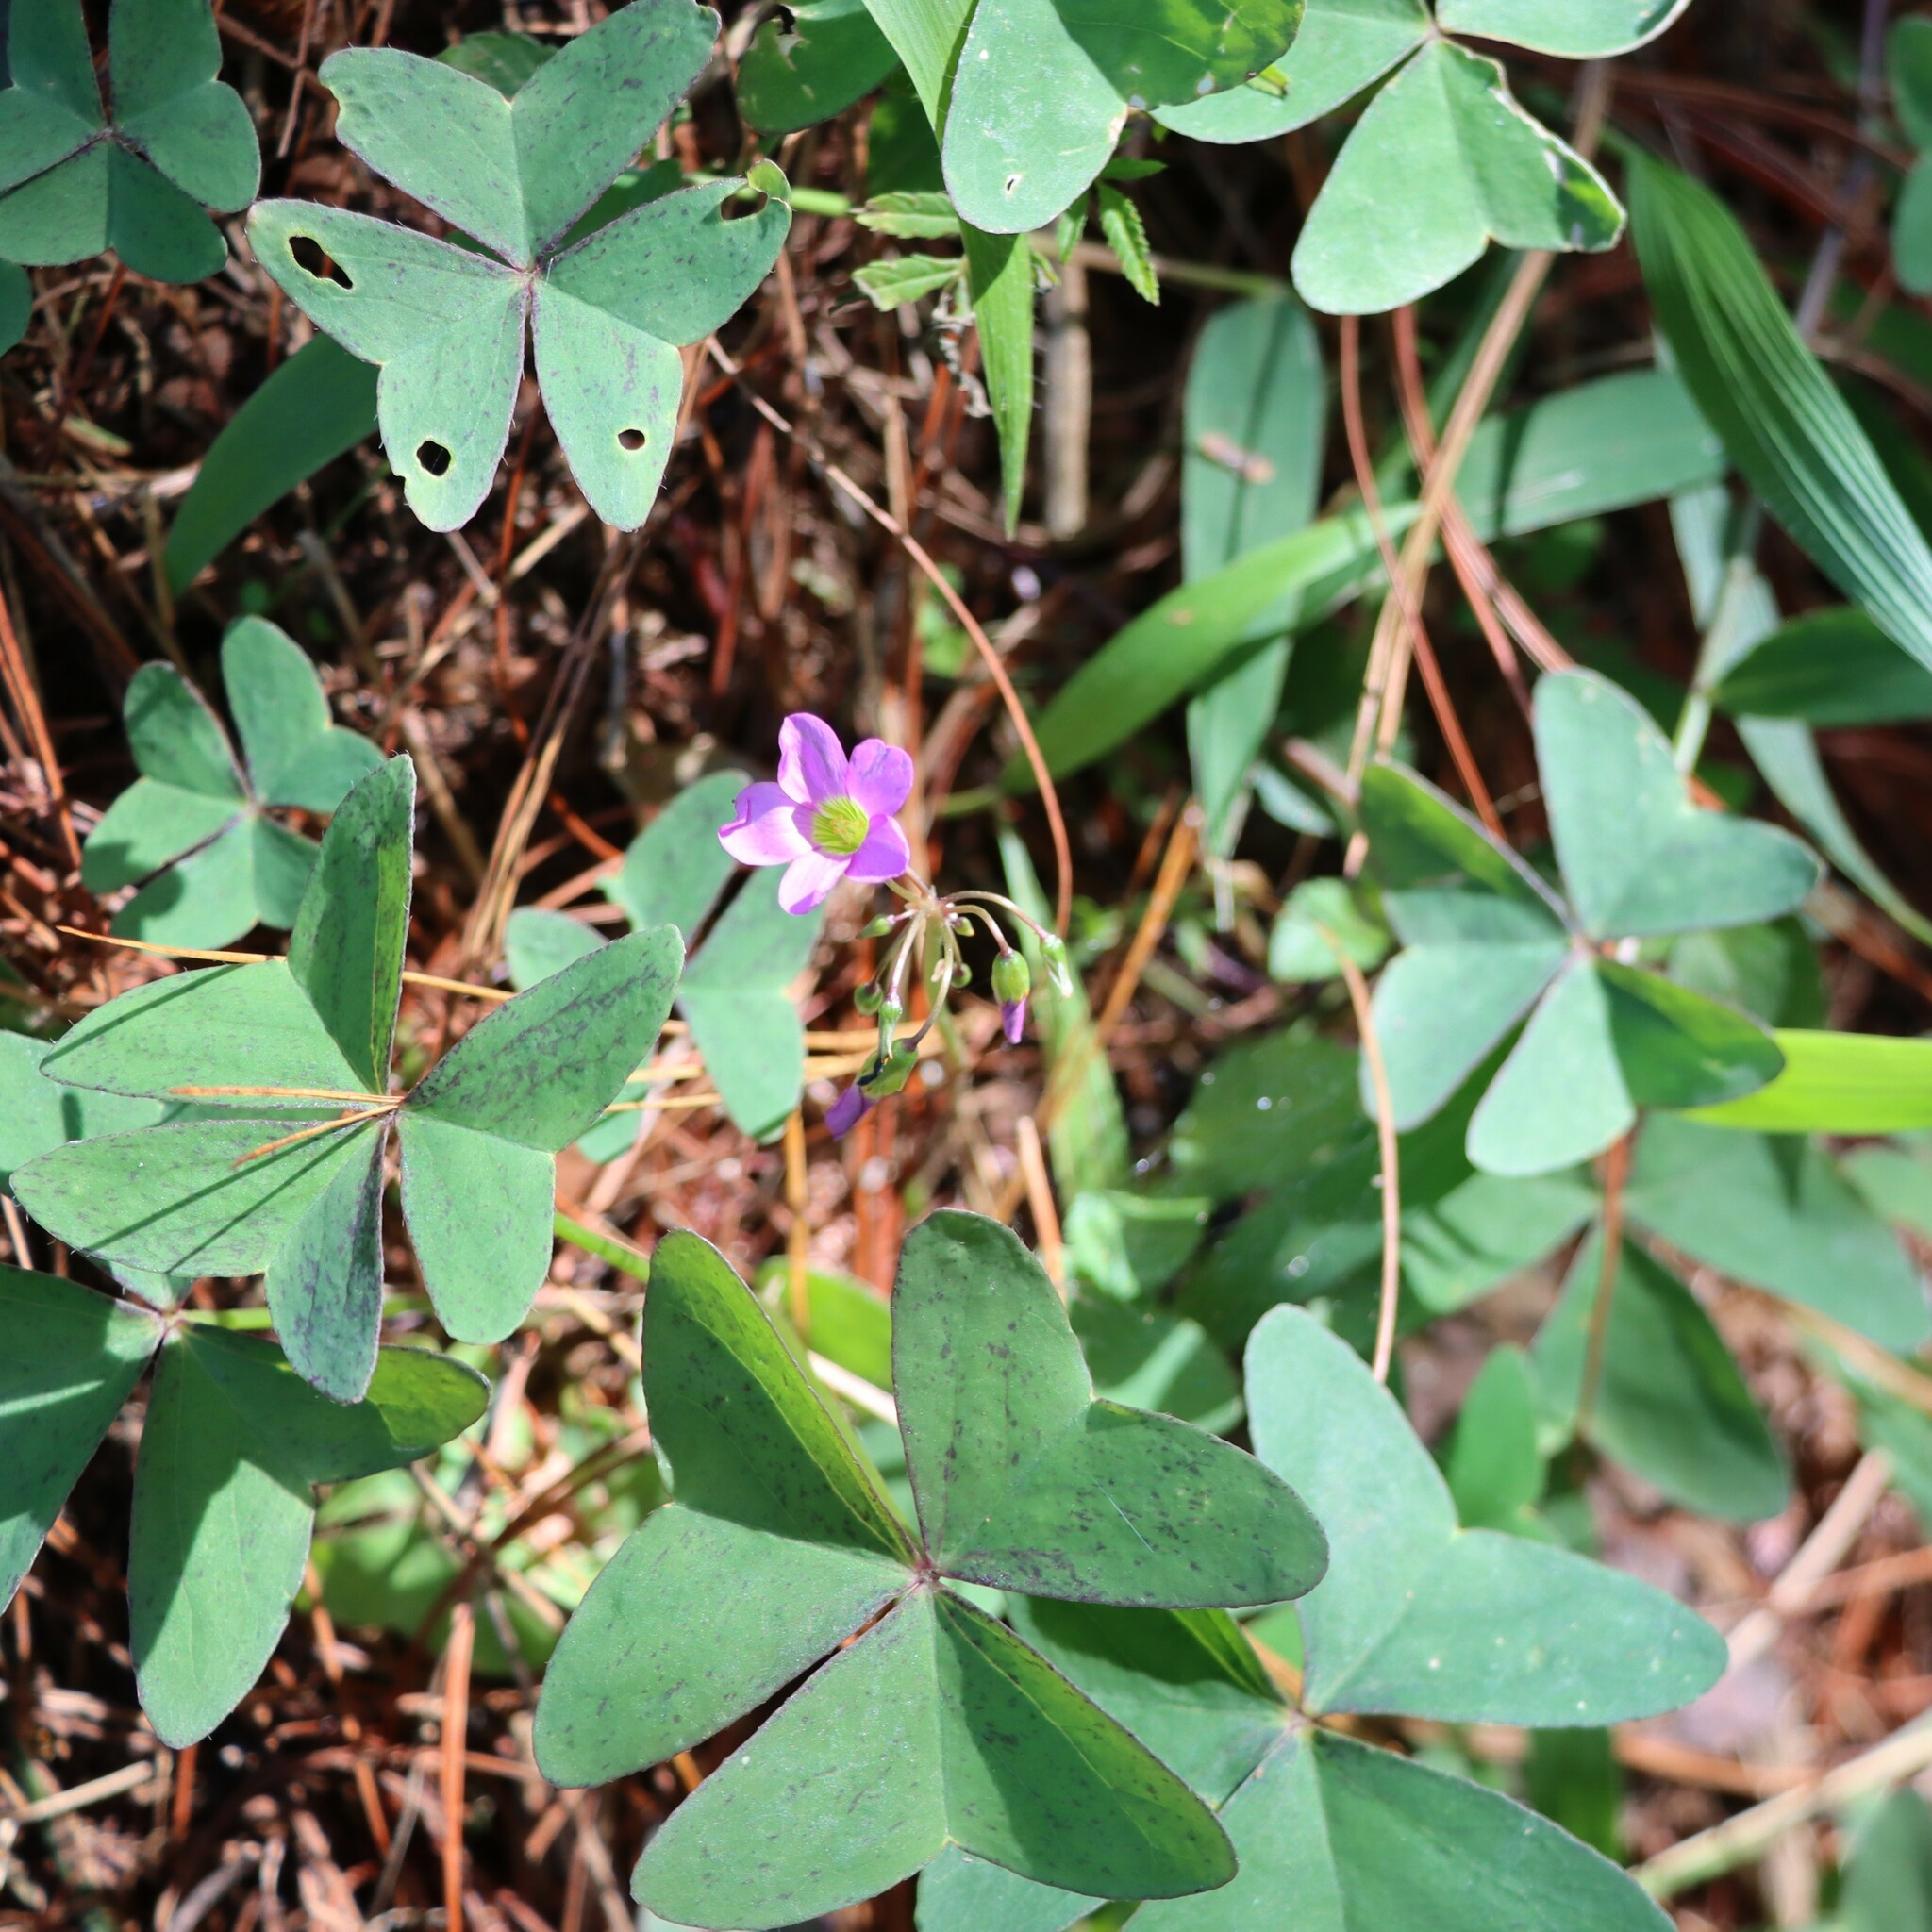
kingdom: Plantae
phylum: Tracheophyta
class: Magnoliopsida
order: Oxalidales
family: Oxalidaceae
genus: Oxalis
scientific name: Oxalis latifolia
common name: Garden pink-sorrel
